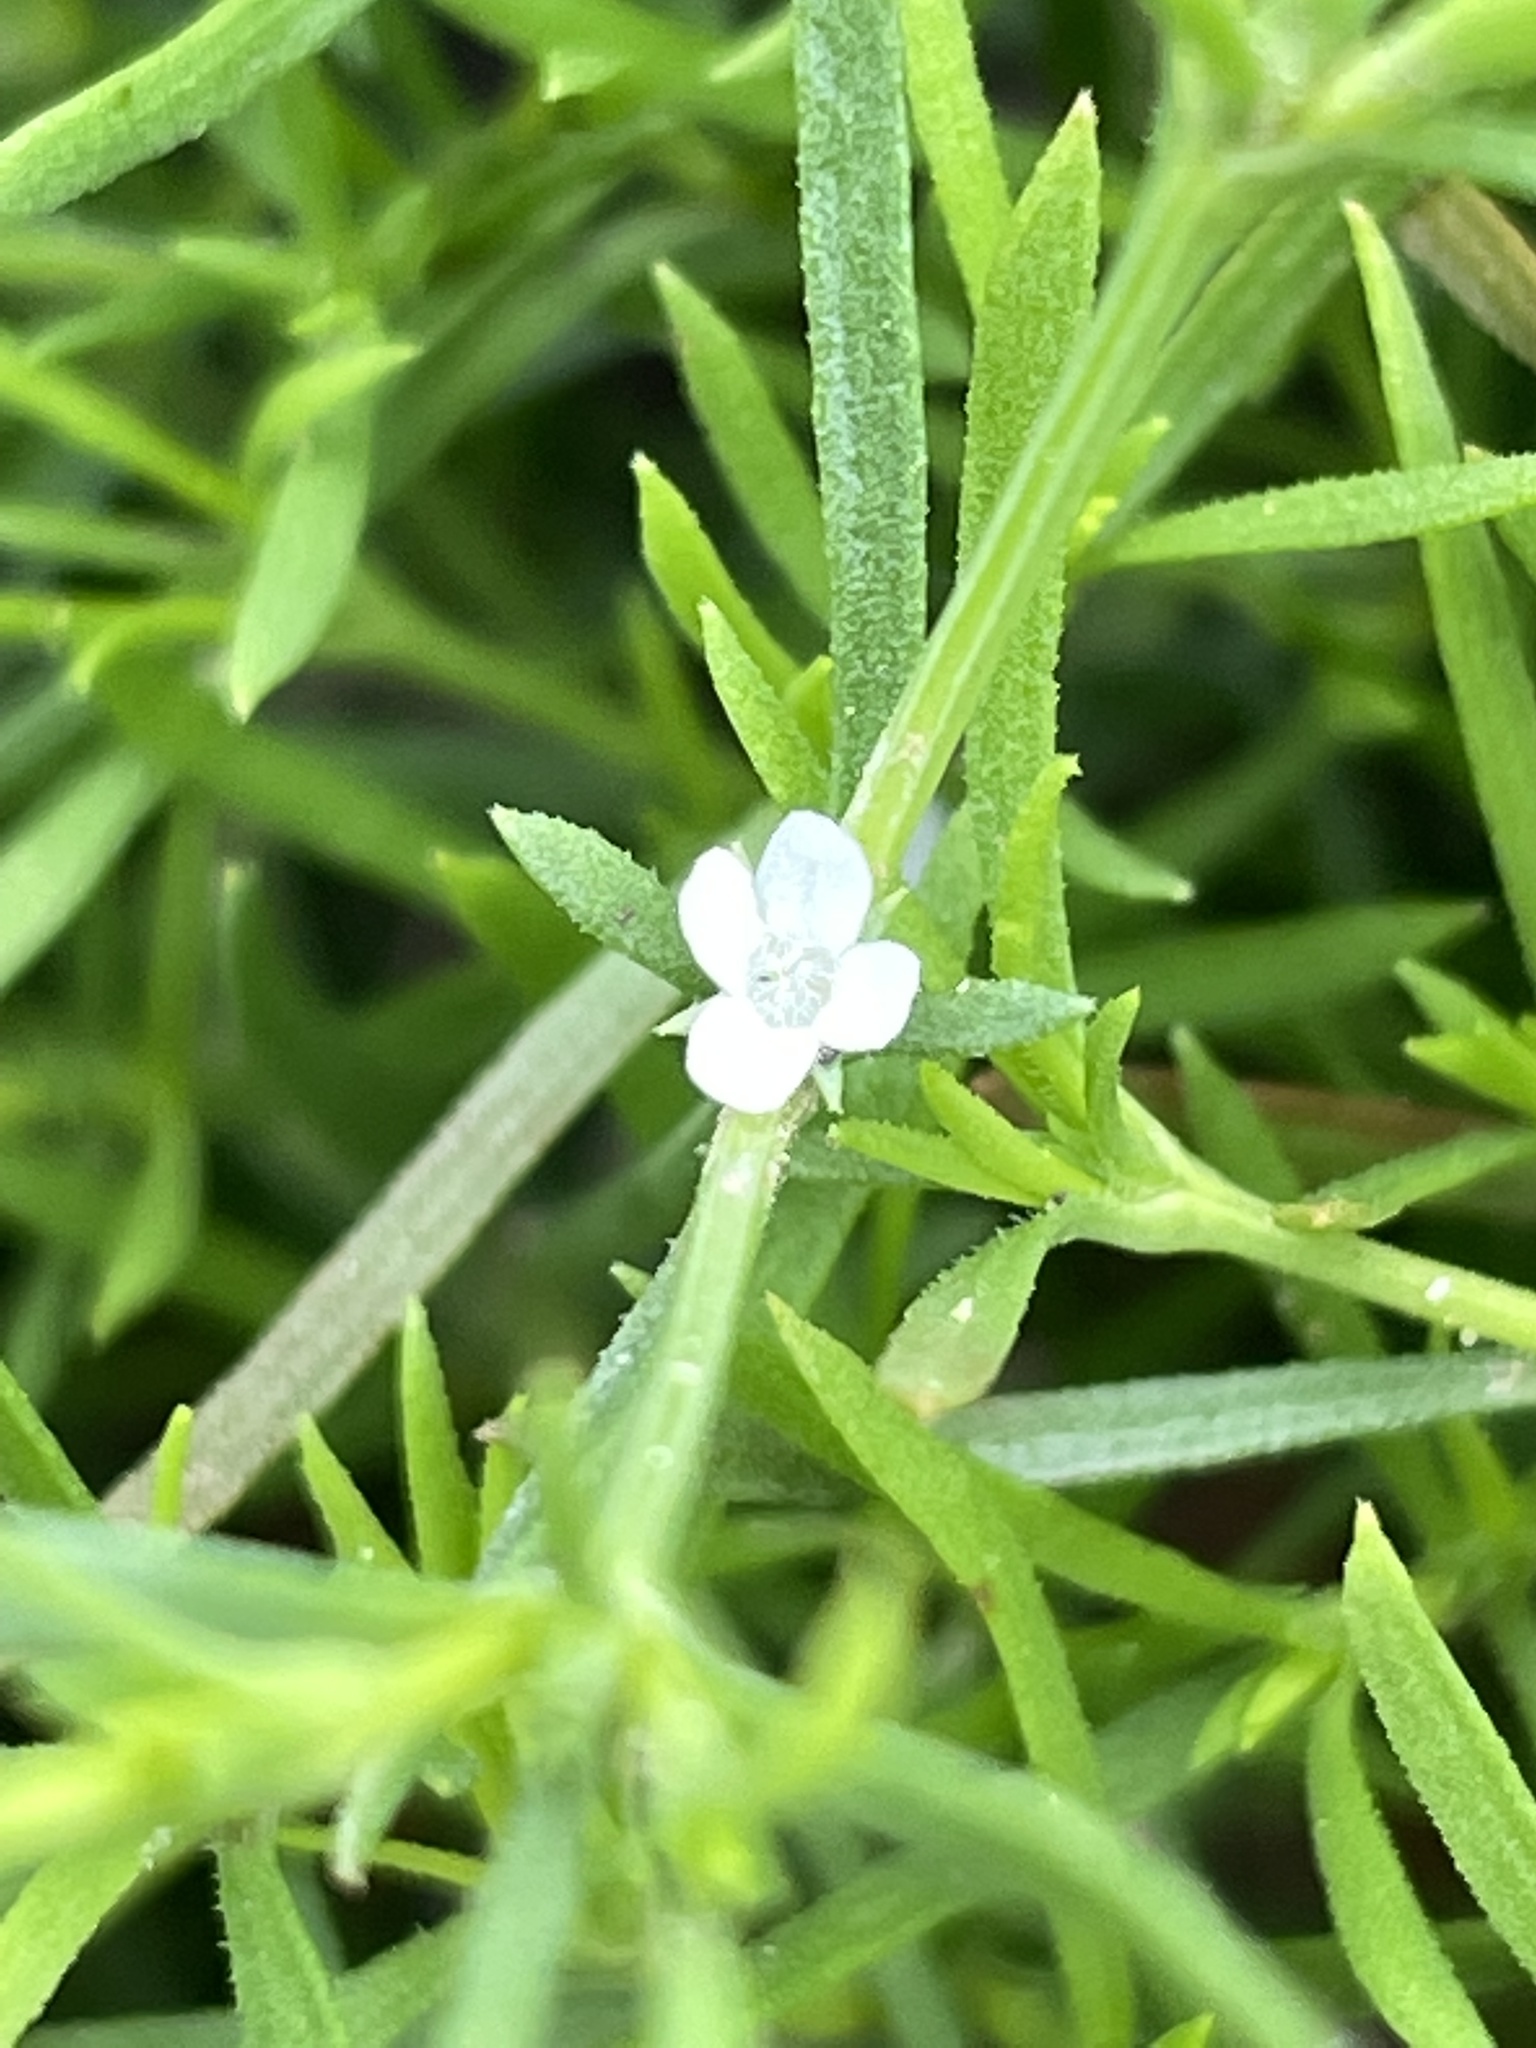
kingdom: Plantae
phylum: Tracheophyta
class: Magnoliopsida
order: Lamiales
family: Tetrachondraceae
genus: Polypremum
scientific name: Polypremum procumbens
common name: Juniper-leaf
